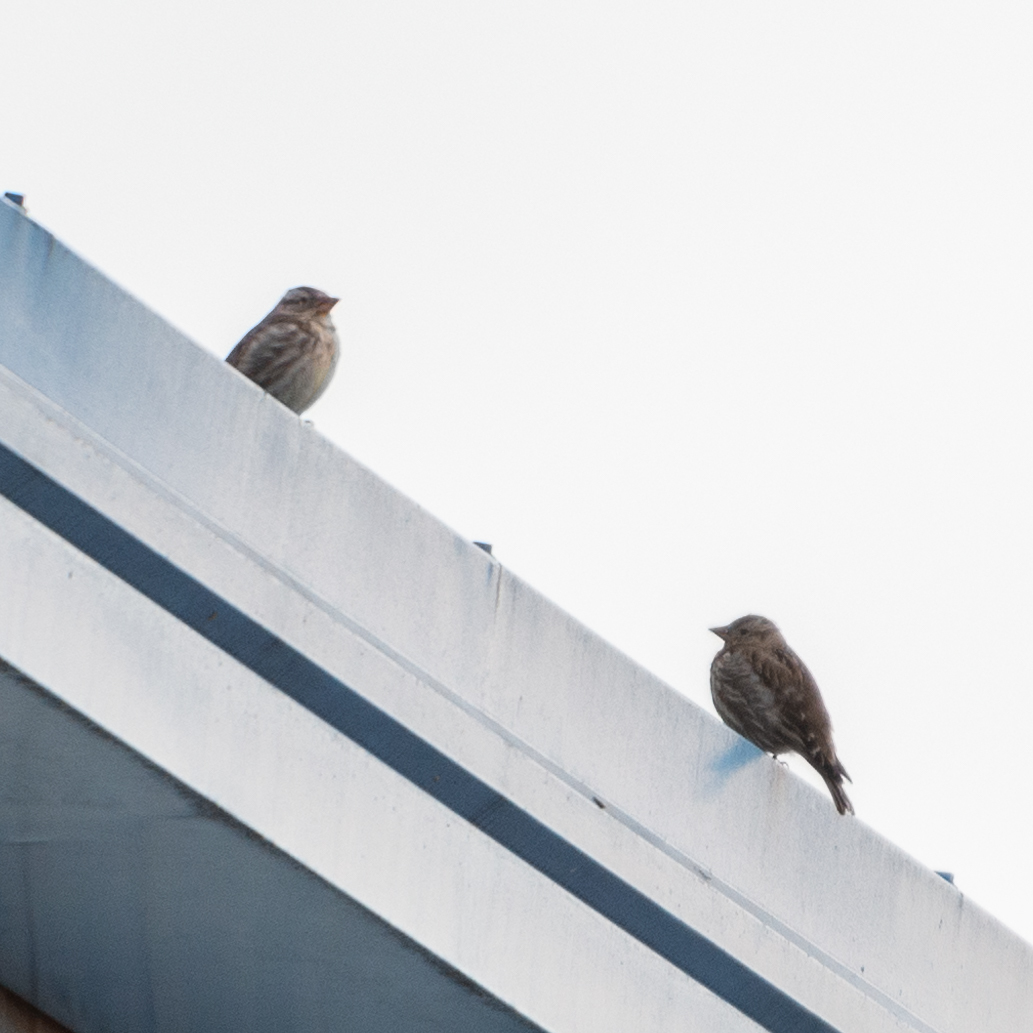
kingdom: Animalia
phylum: Chordata
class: Aves
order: Passeriformes
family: Passeridae
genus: Petronia
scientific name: Petronia petronia
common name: Rock sparrow
